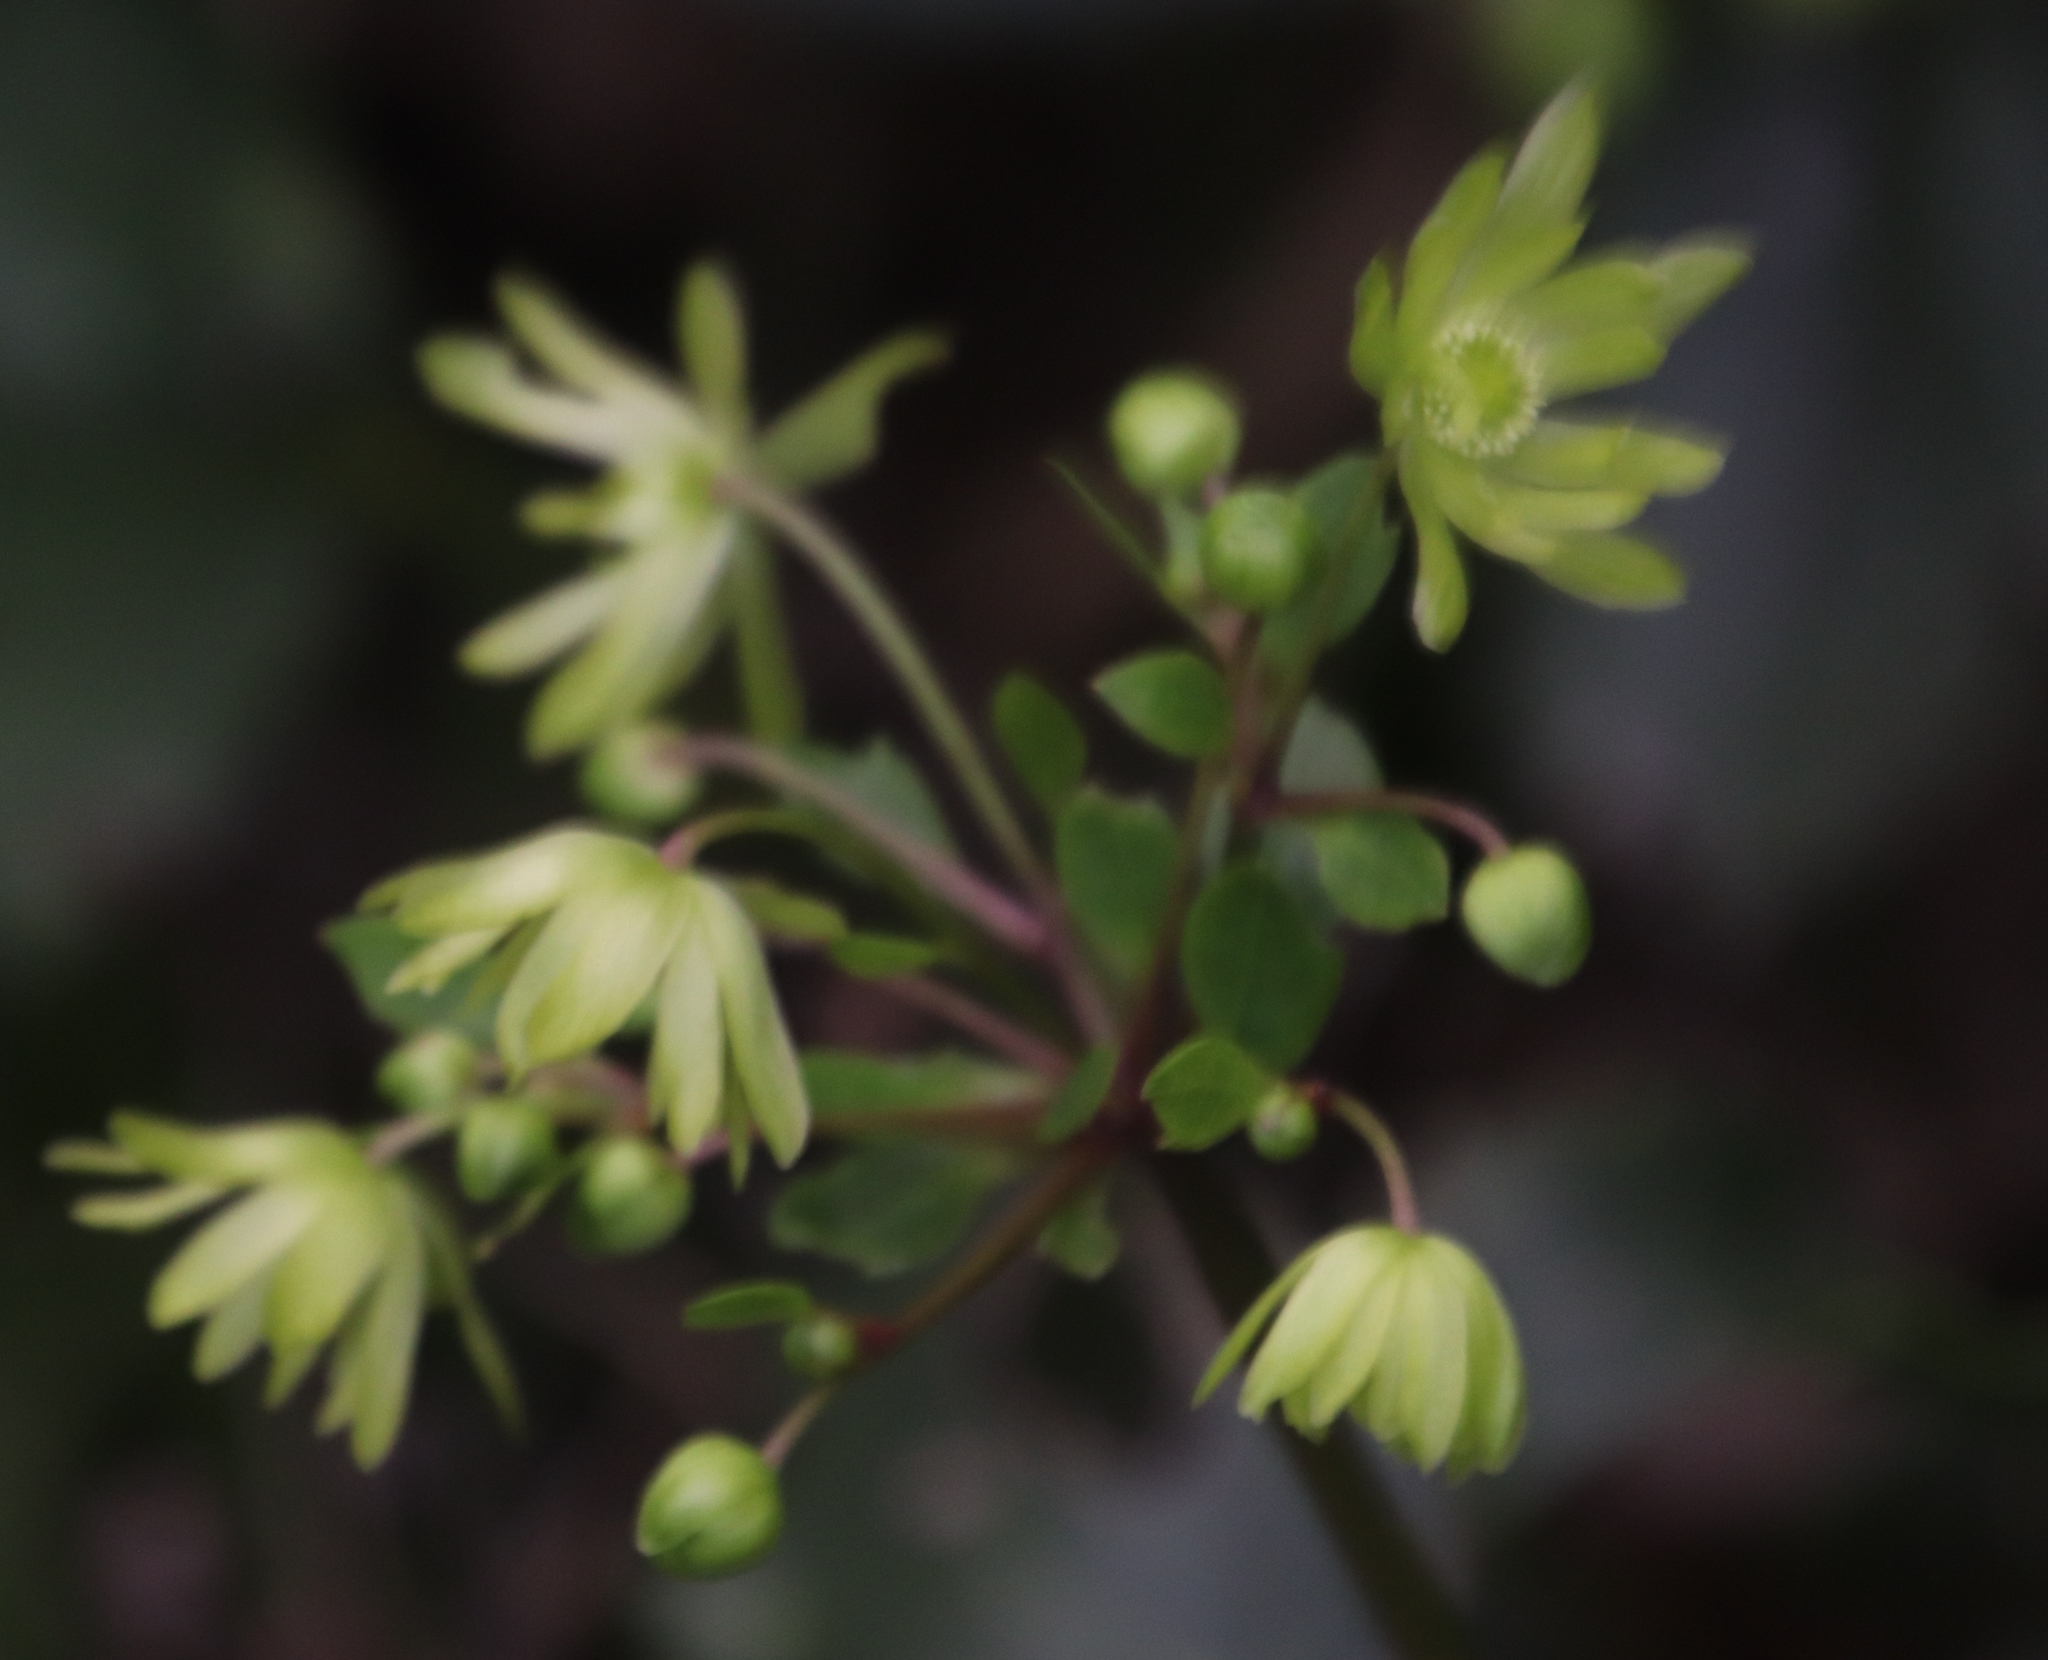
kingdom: Plantae
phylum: Tracheophyta
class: Magnoliopsida
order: Ranunculales
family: Ranunculaceae
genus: Knowltonia
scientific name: Knowltonia vesicatoria
